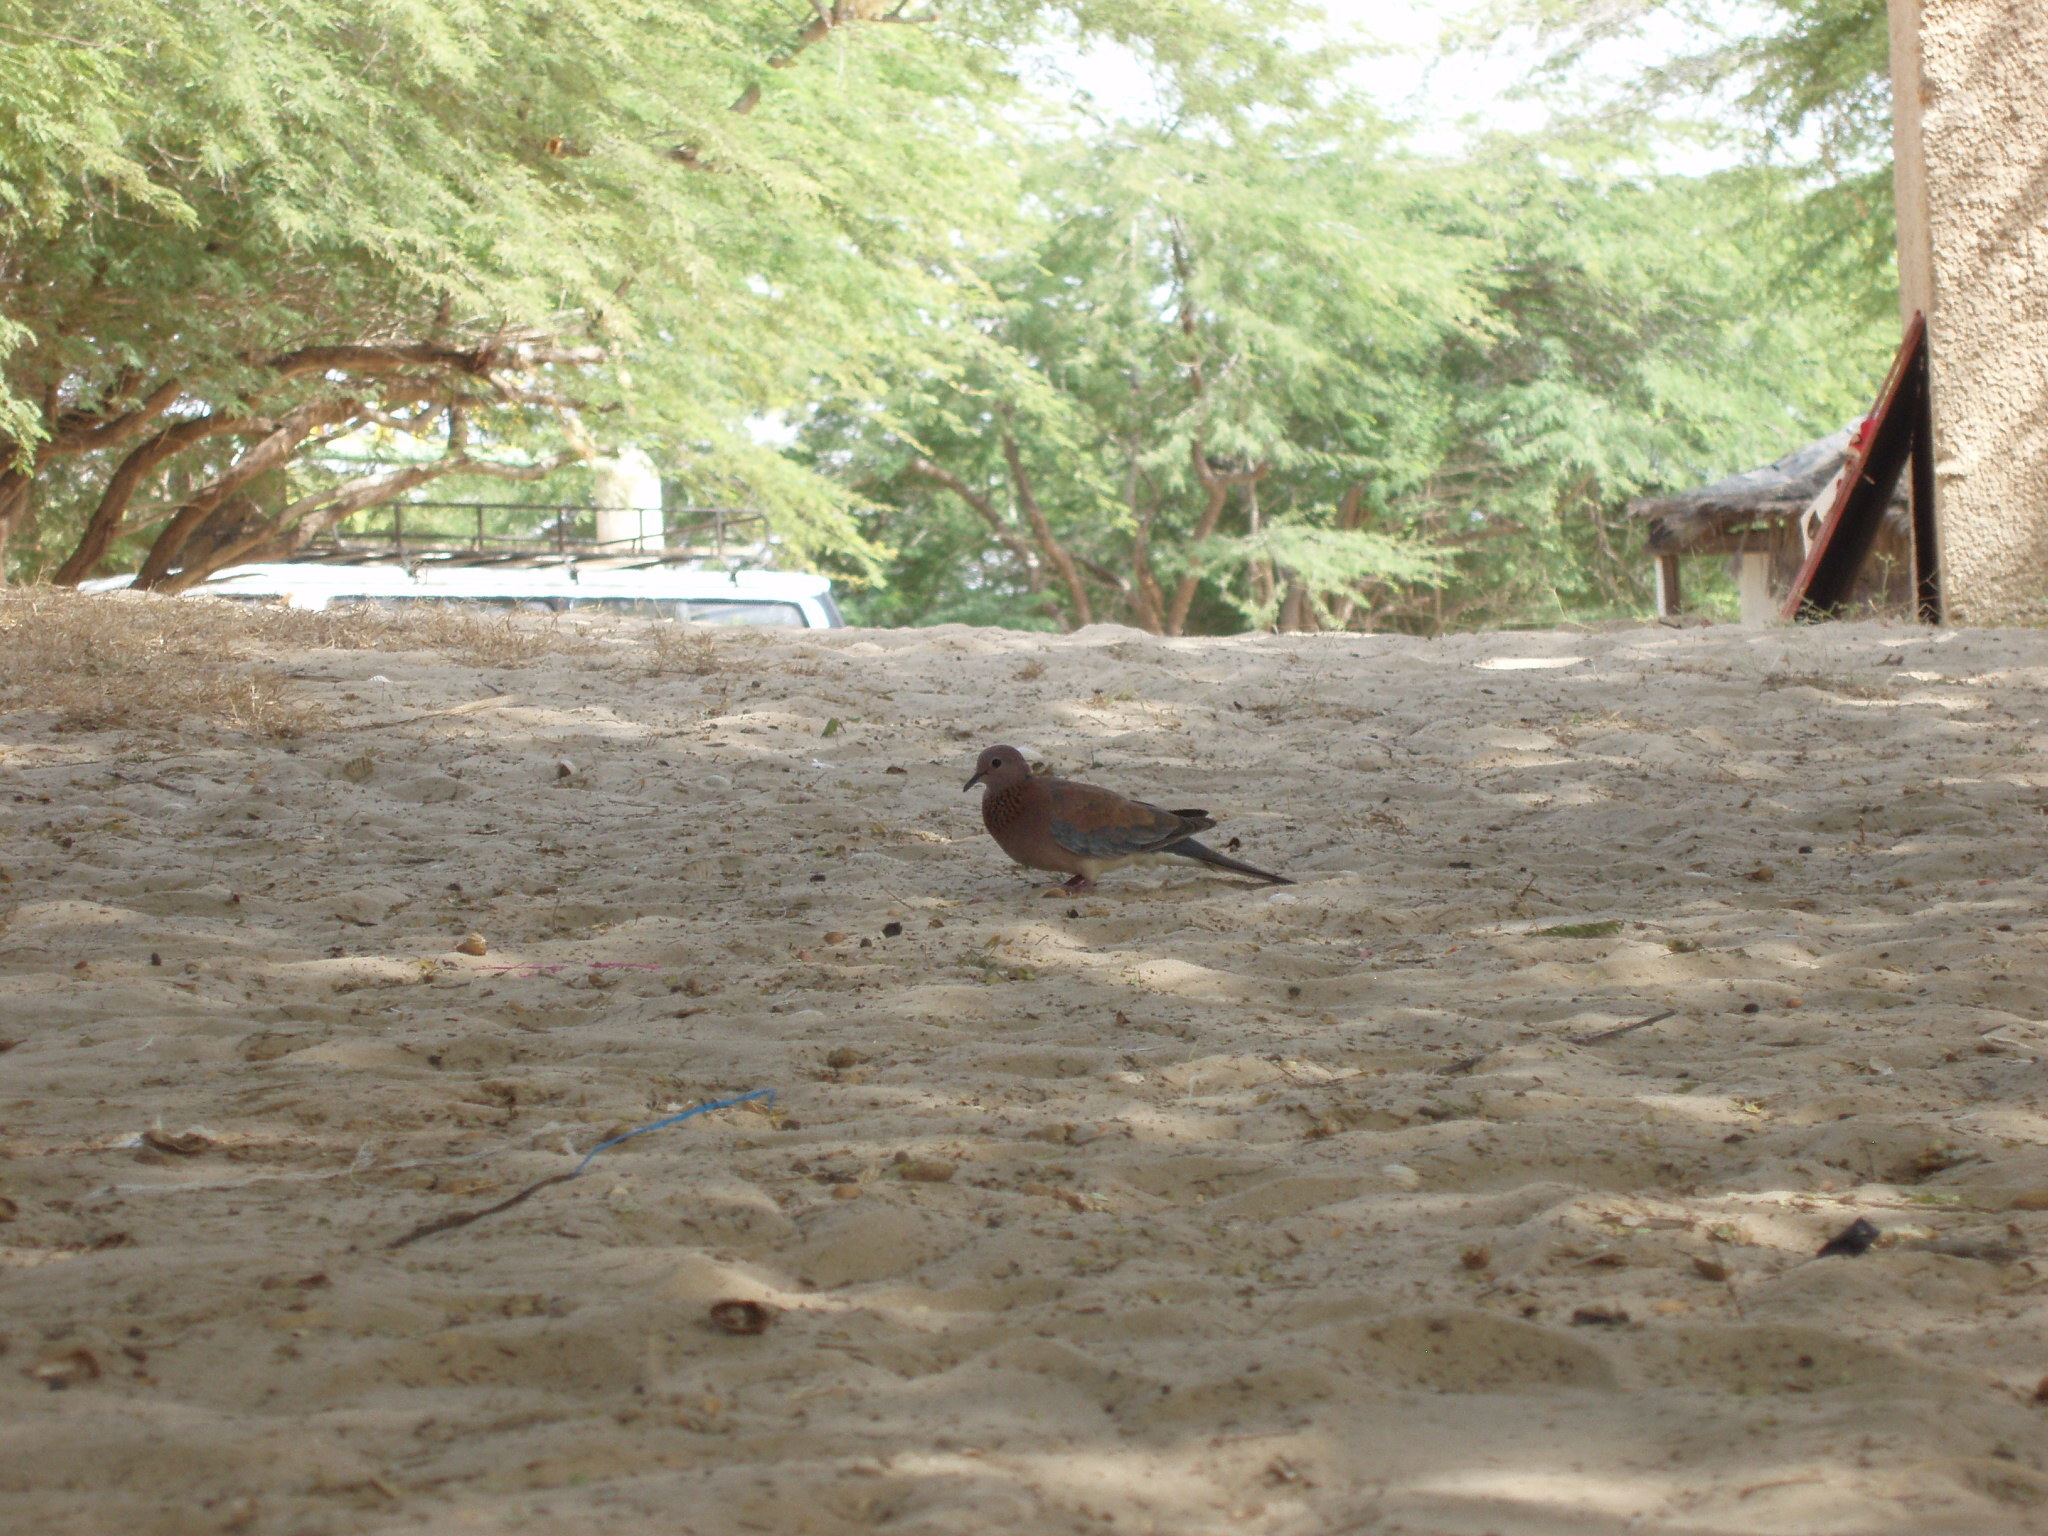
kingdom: Animalia
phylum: Chordata
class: Aves
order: Columbiformes
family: Columbidae
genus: Spilopelia
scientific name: Spilopelia senegalensis
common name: Laughing dove
